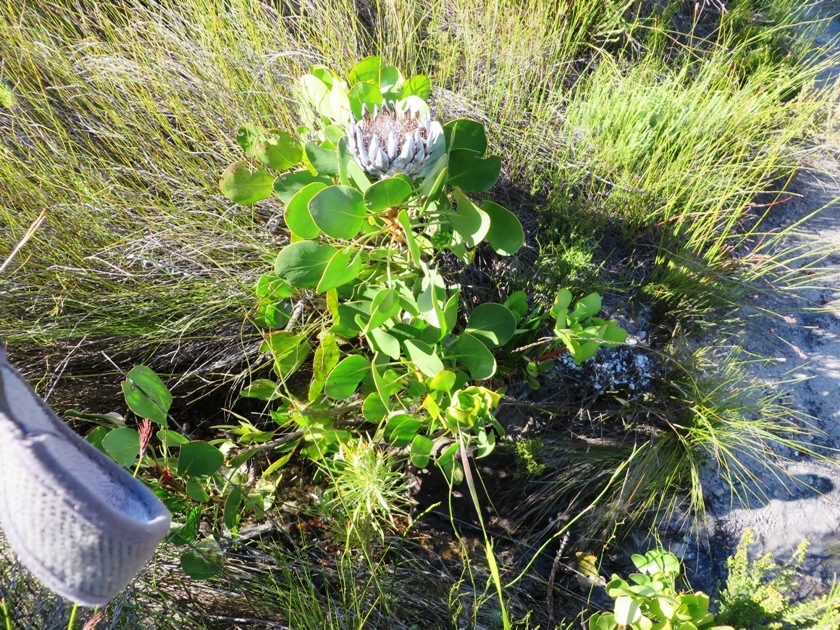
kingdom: Plantae
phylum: Tracheophyta
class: Magnoliopsida
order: Proteales
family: Proteaceae
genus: Protea
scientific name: Protea cynaroides
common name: King protea
